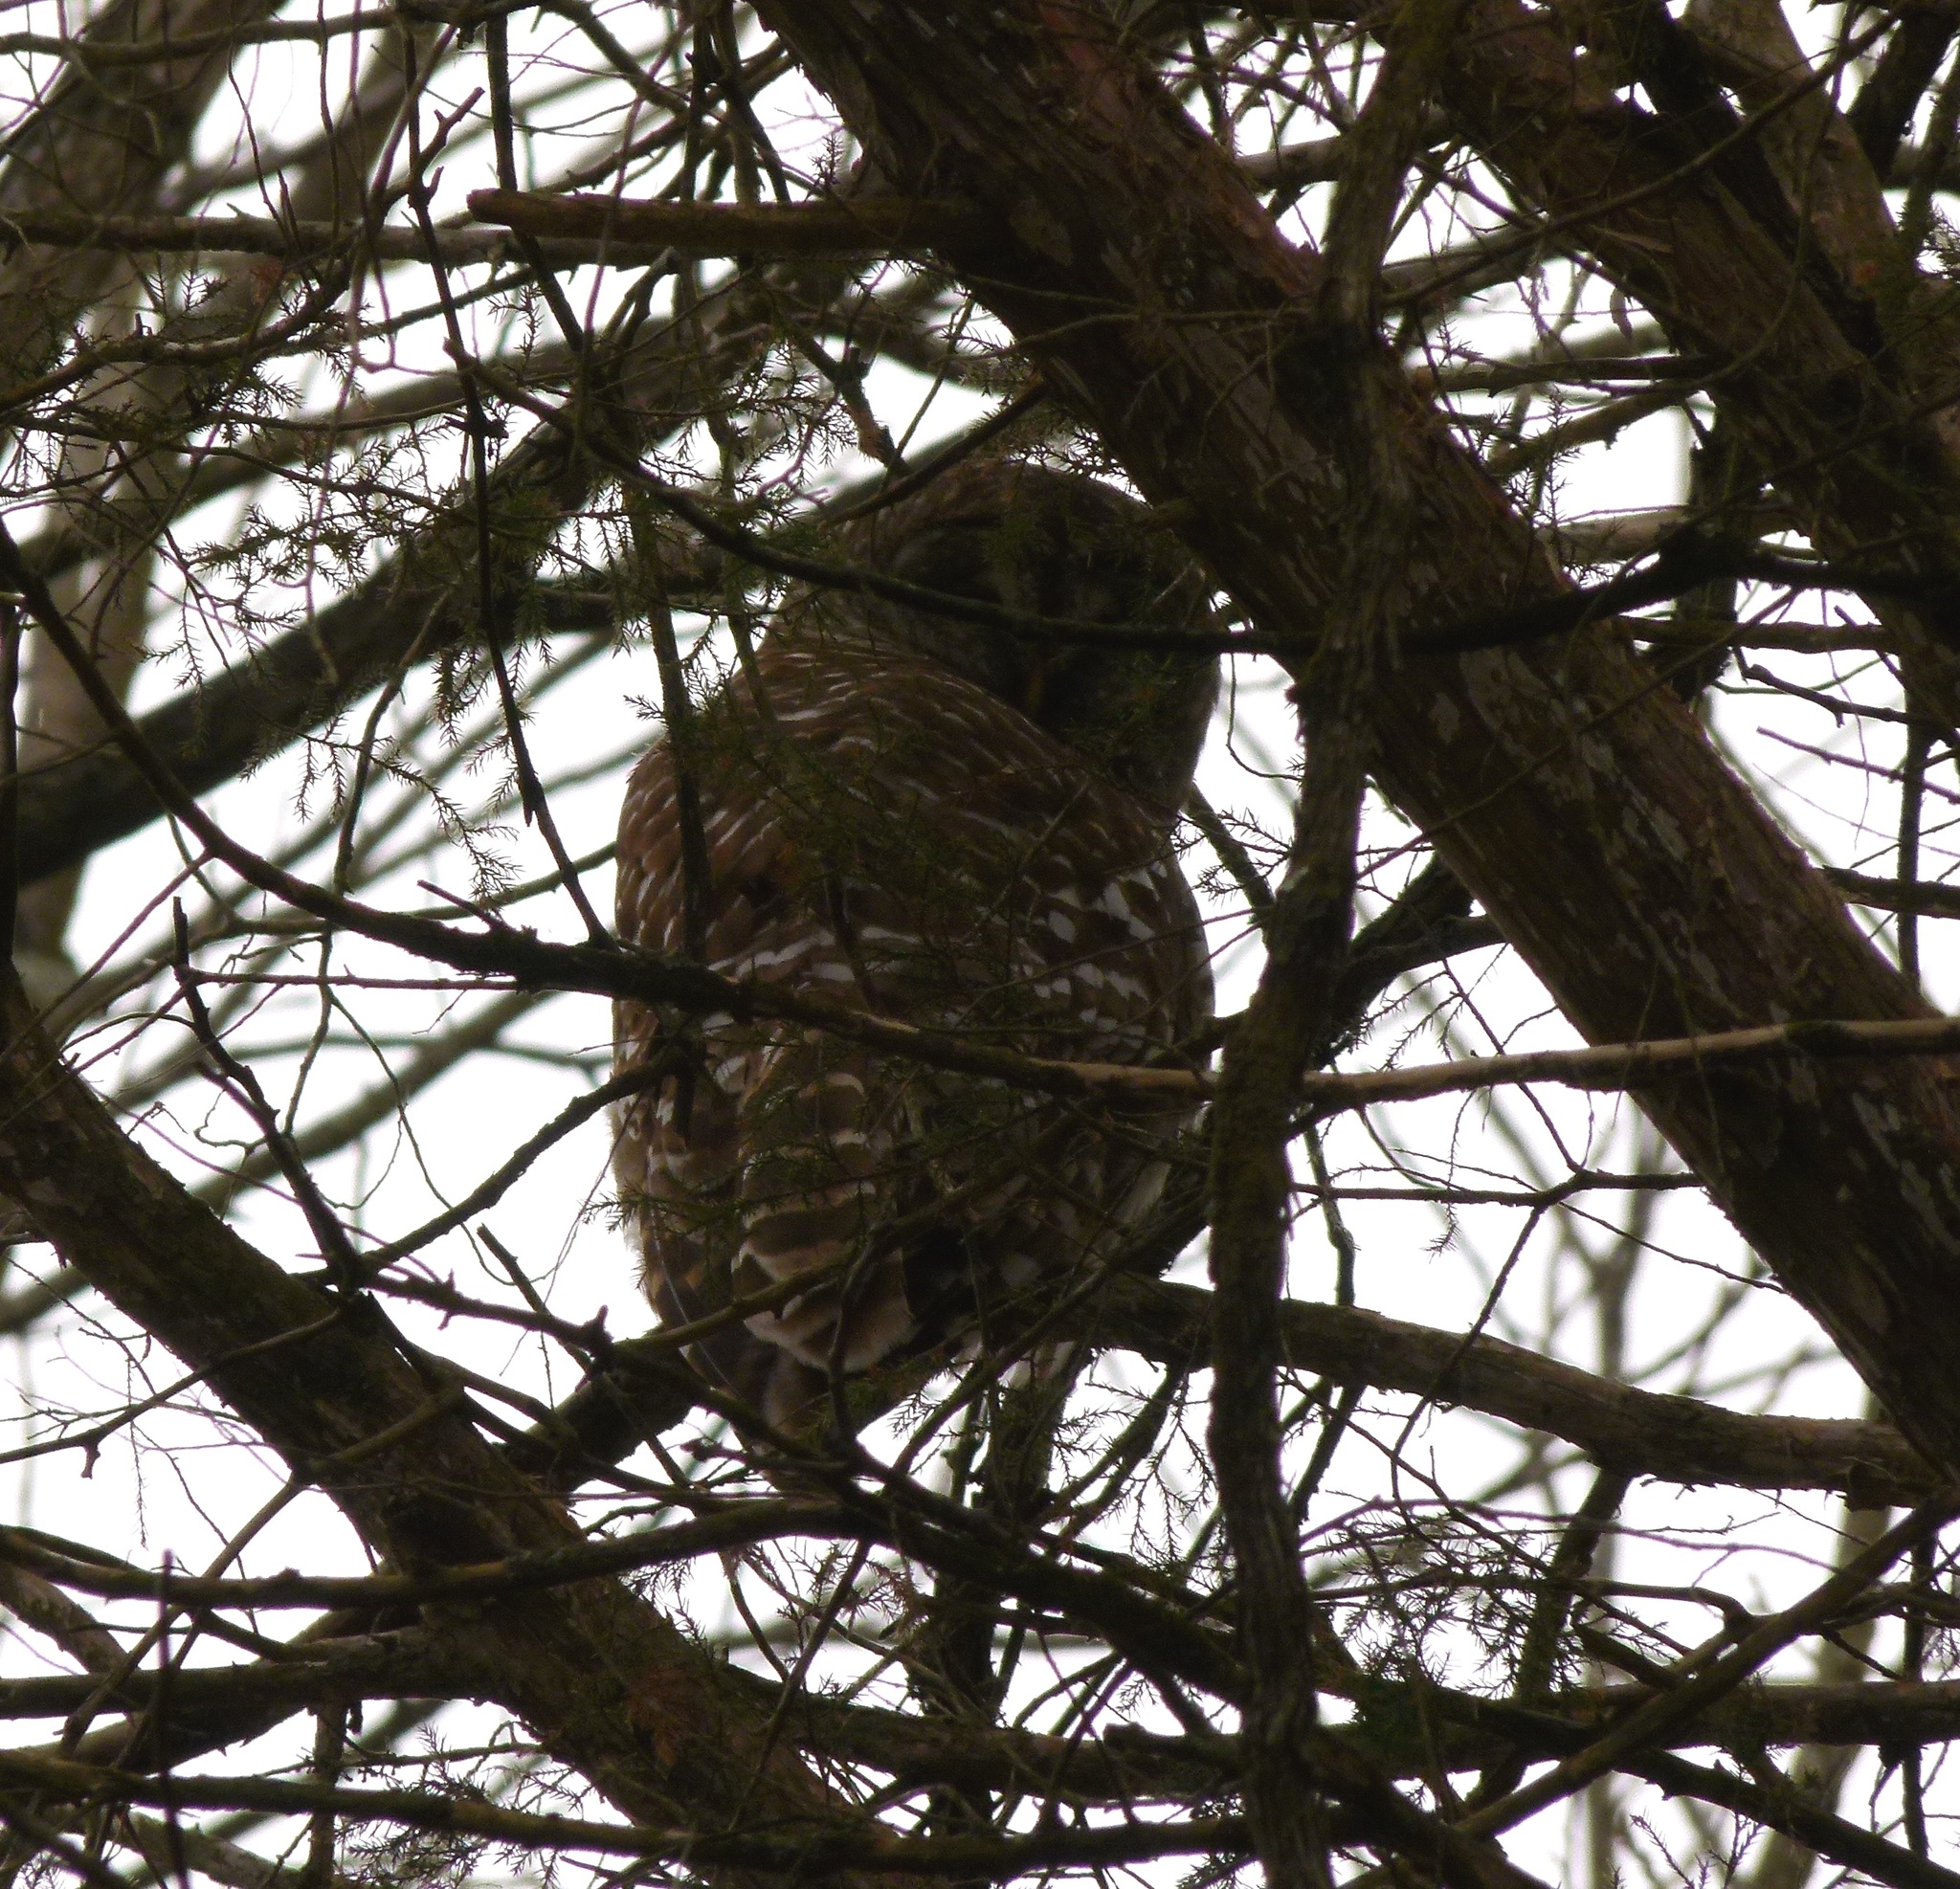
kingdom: Animalia
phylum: Chordata
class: Aves
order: Strigiformes
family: Strigidae
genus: Strix
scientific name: Strix varia
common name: Barred owl
